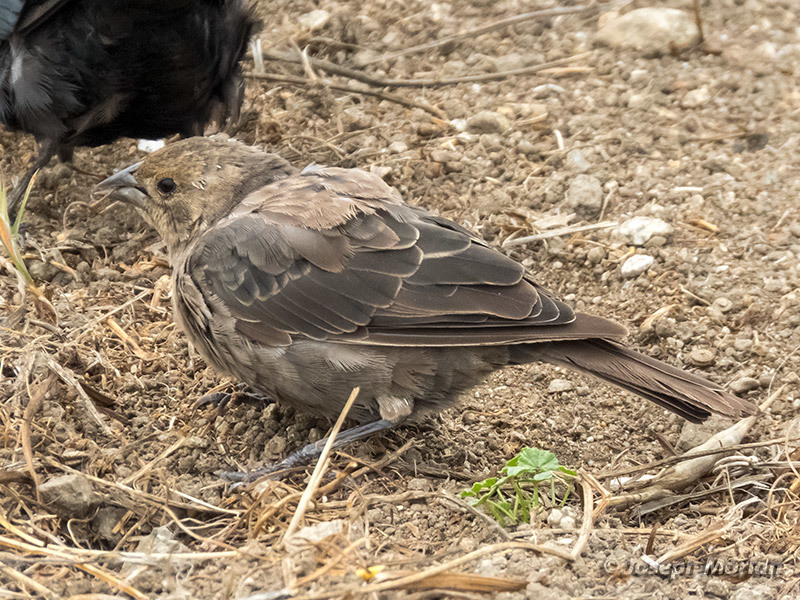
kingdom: Animalia
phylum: Chordata
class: Aves
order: Passeriformes
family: Icteridae
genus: Molothrus
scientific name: Molothrus ater
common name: Brown-headed cowbird
